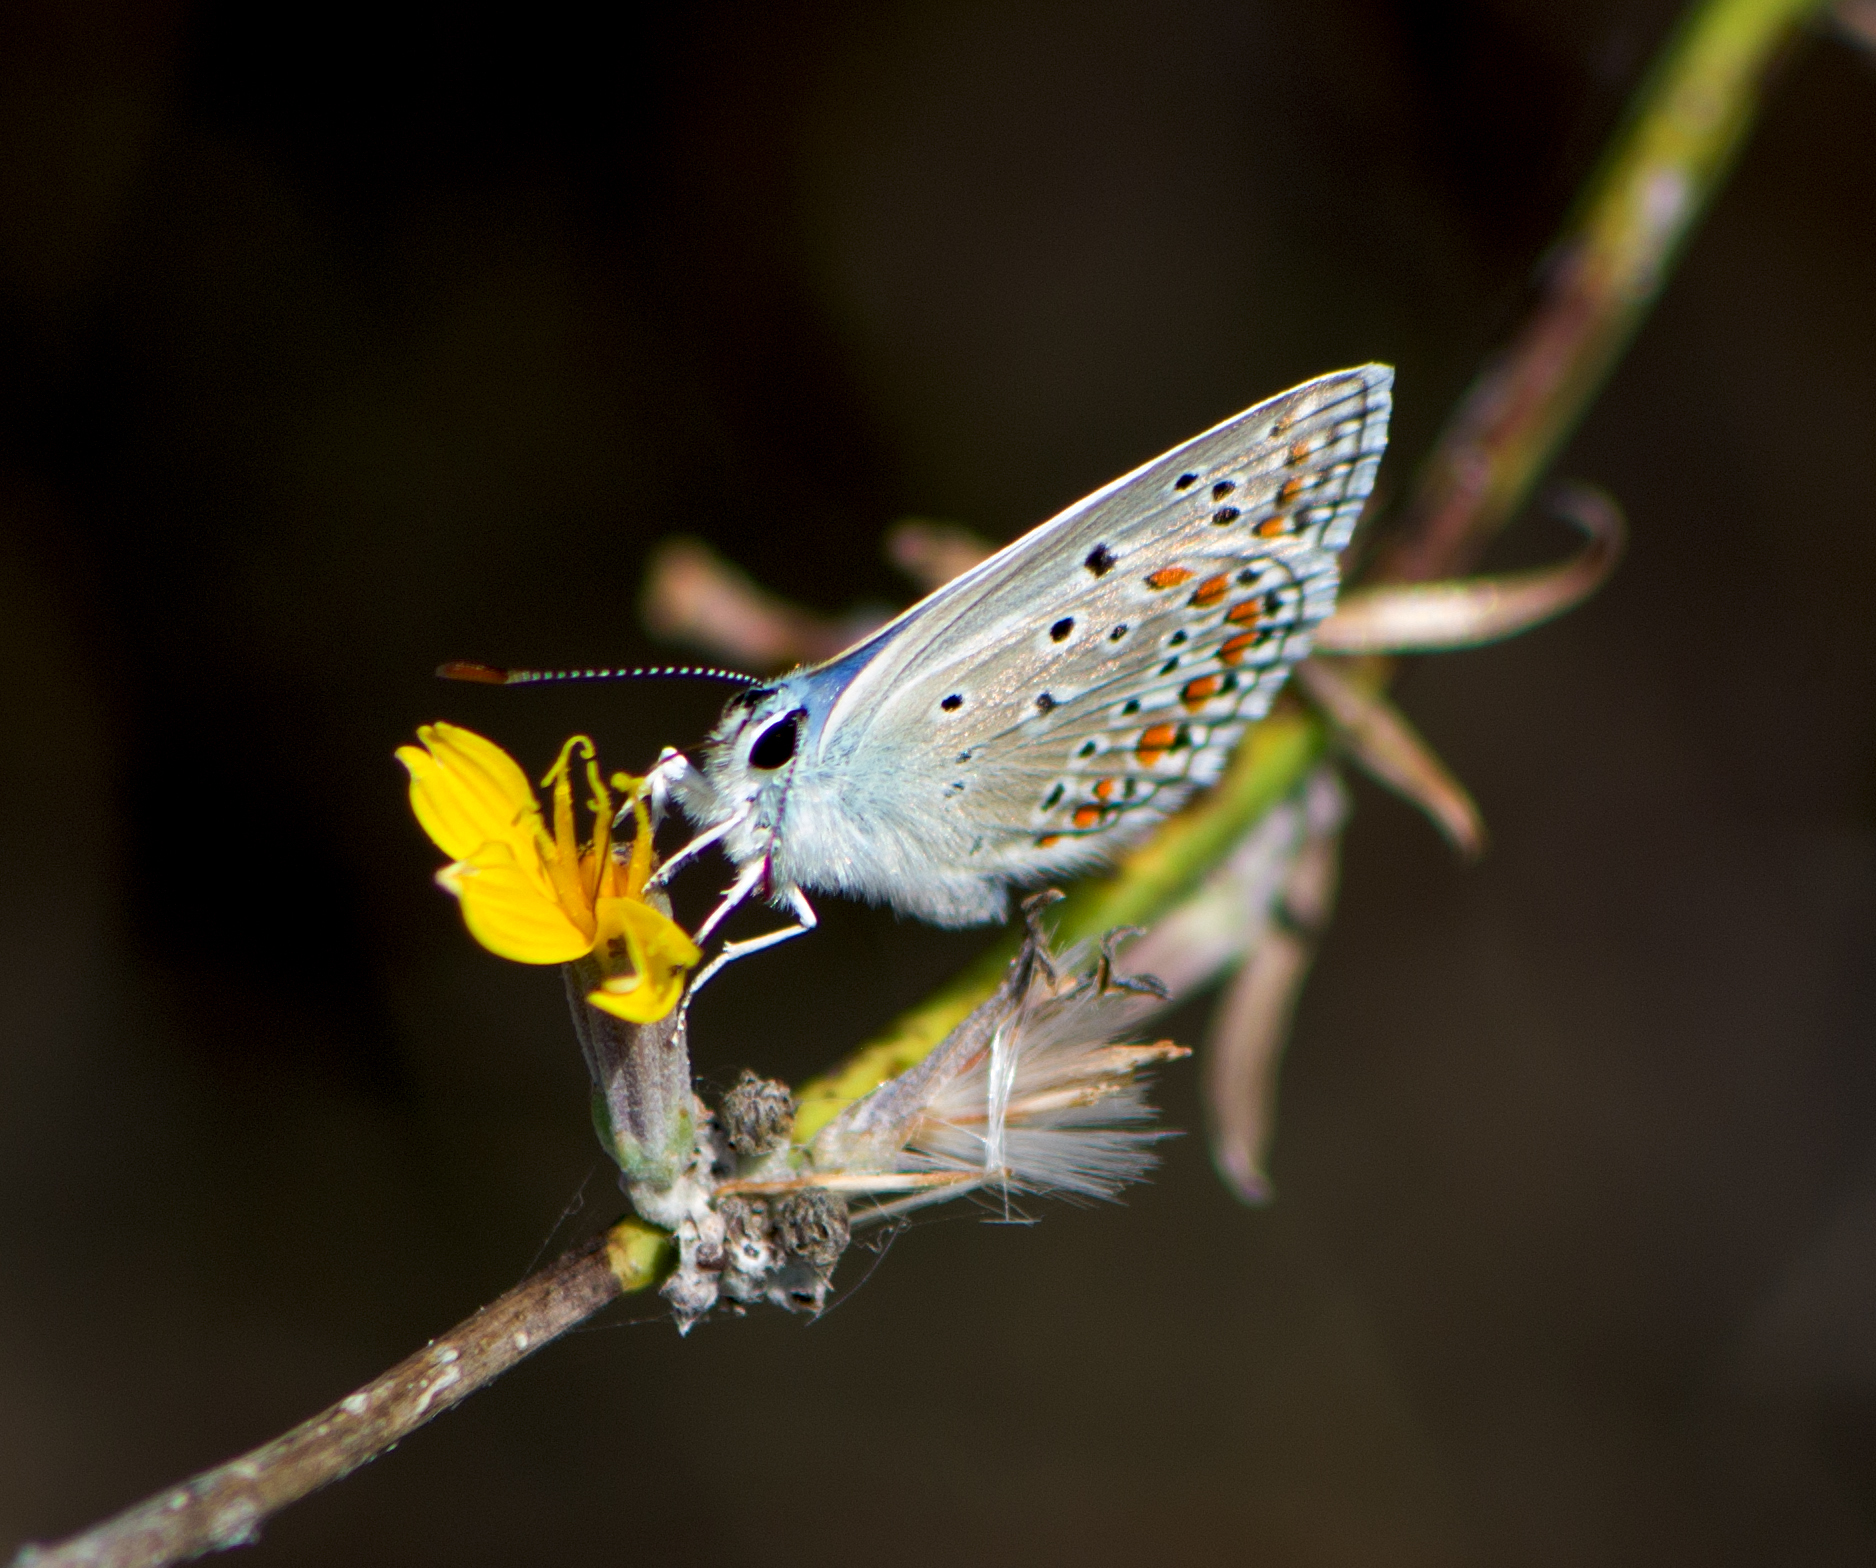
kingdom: Animalia
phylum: Arthropoda
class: Insecta
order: Lepidoptera
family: Lycaenidae
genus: Polyommatus
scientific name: Polyommatus icarus
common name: Common blue
